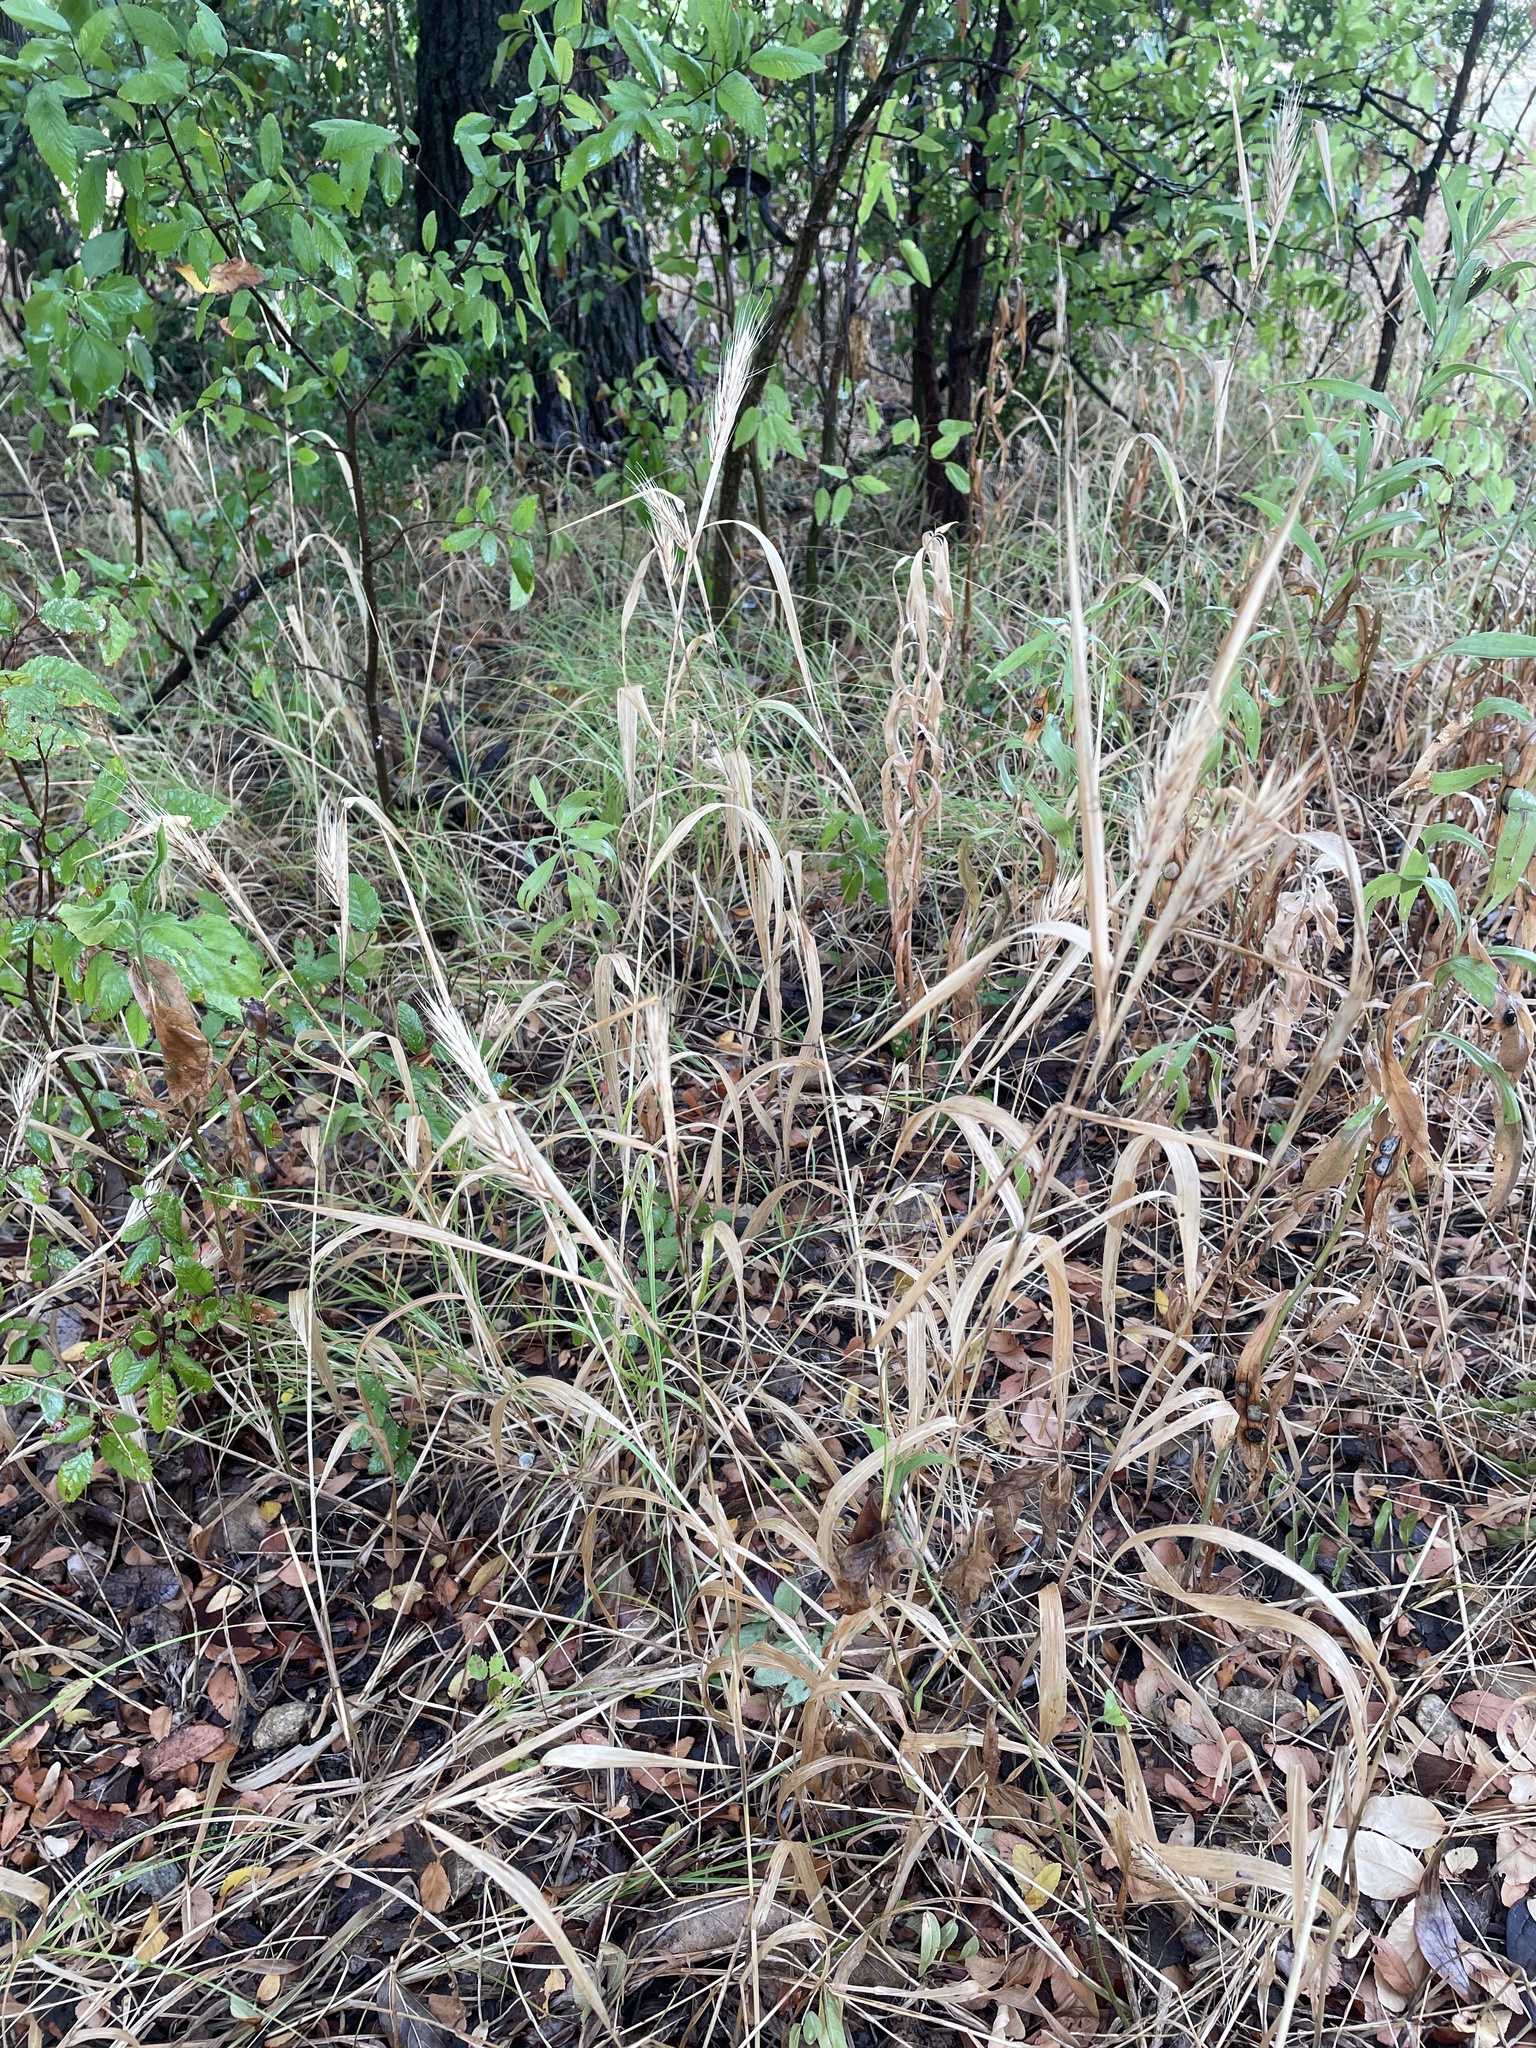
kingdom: Plantae
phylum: Tracheophyta
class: Liliopsida
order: Poales
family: Poaceae
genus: Elymus
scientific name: Elymus virginicus
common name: Common eastern wildrye
